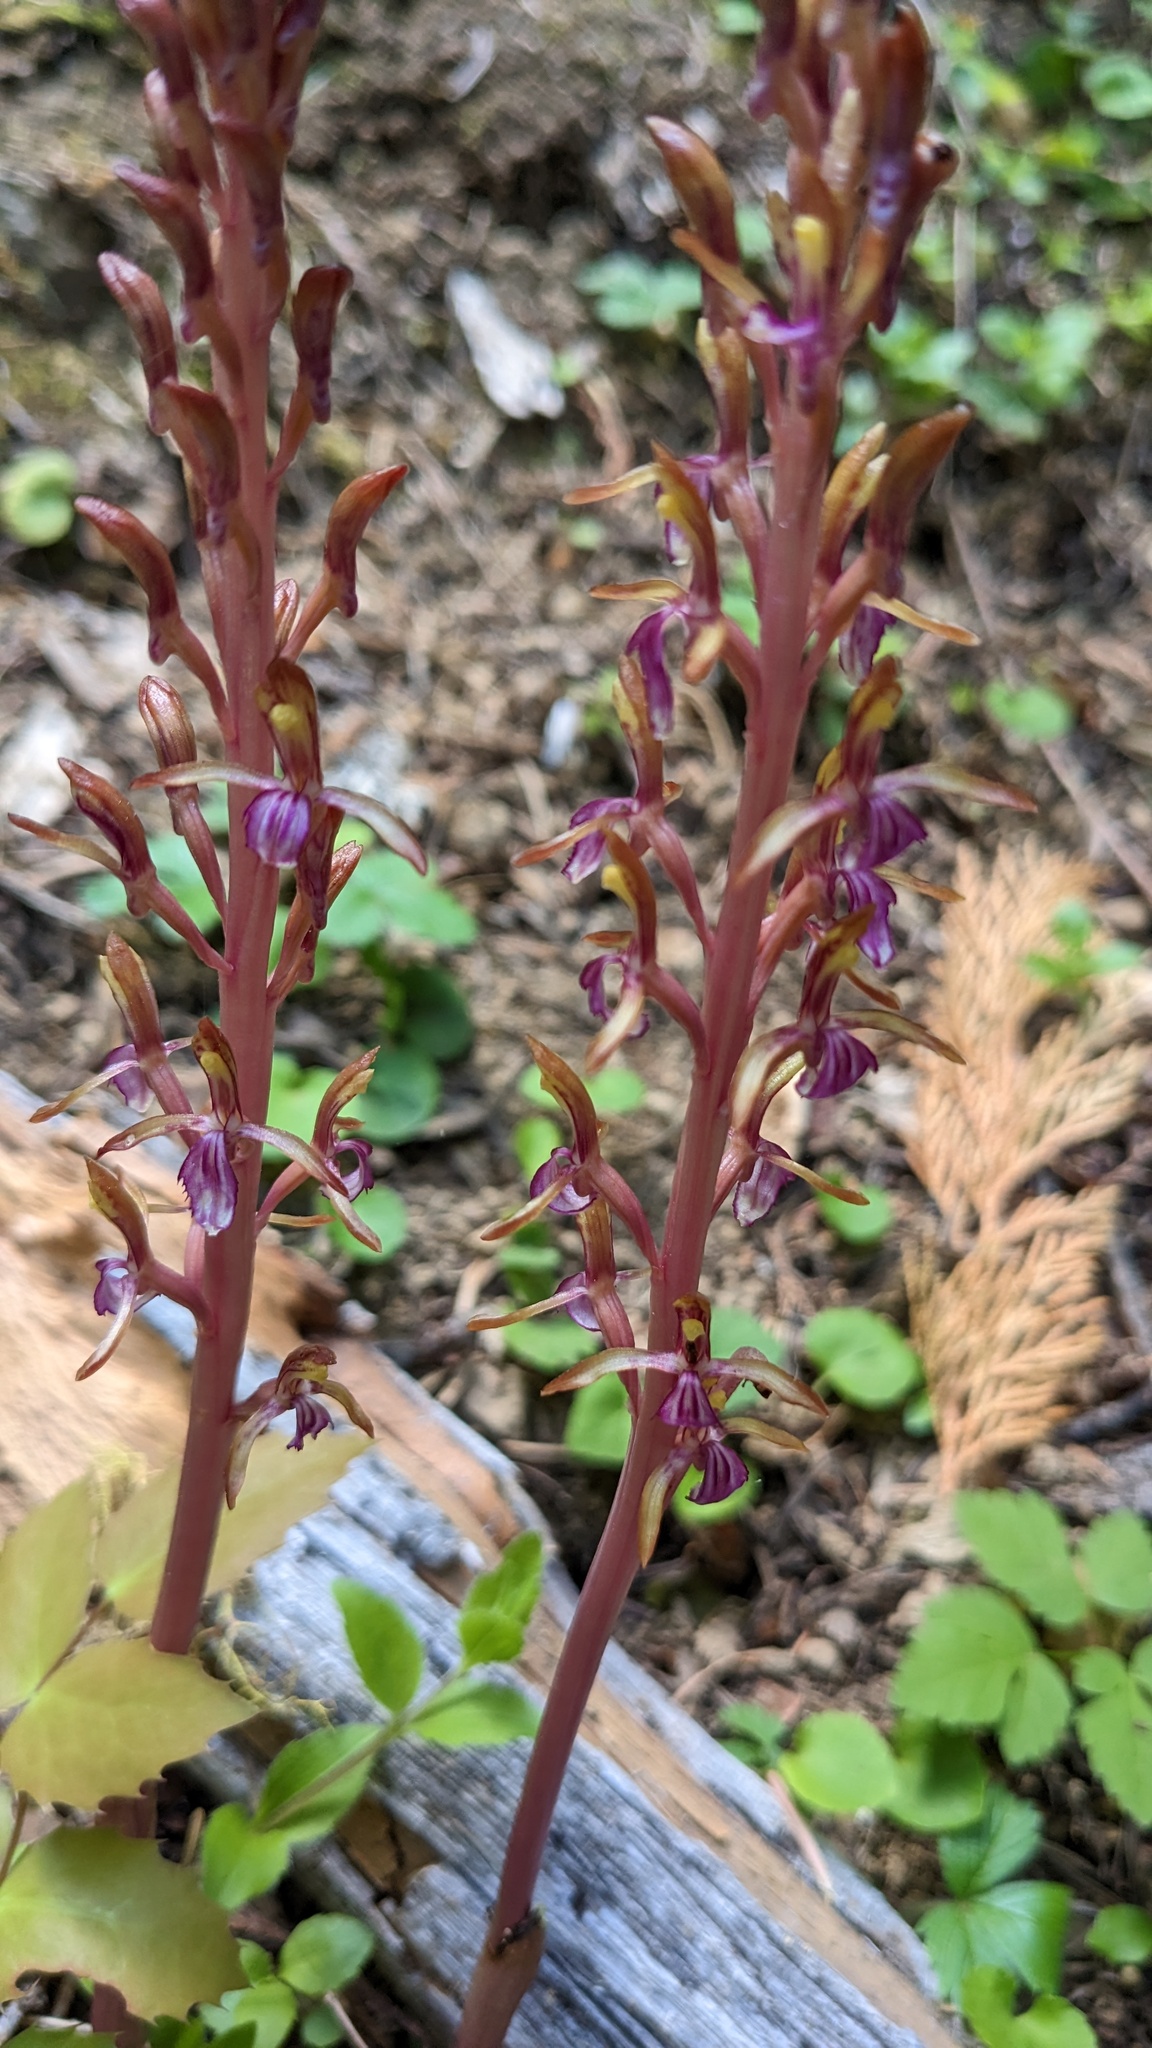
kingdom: Plantae
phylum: Tracheophyta
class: Liliopsida
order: Asparagales
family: Orchidaceae
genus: Corallorhiza
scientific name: Corallorhiza mertensiana
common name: Pacific coralroot
